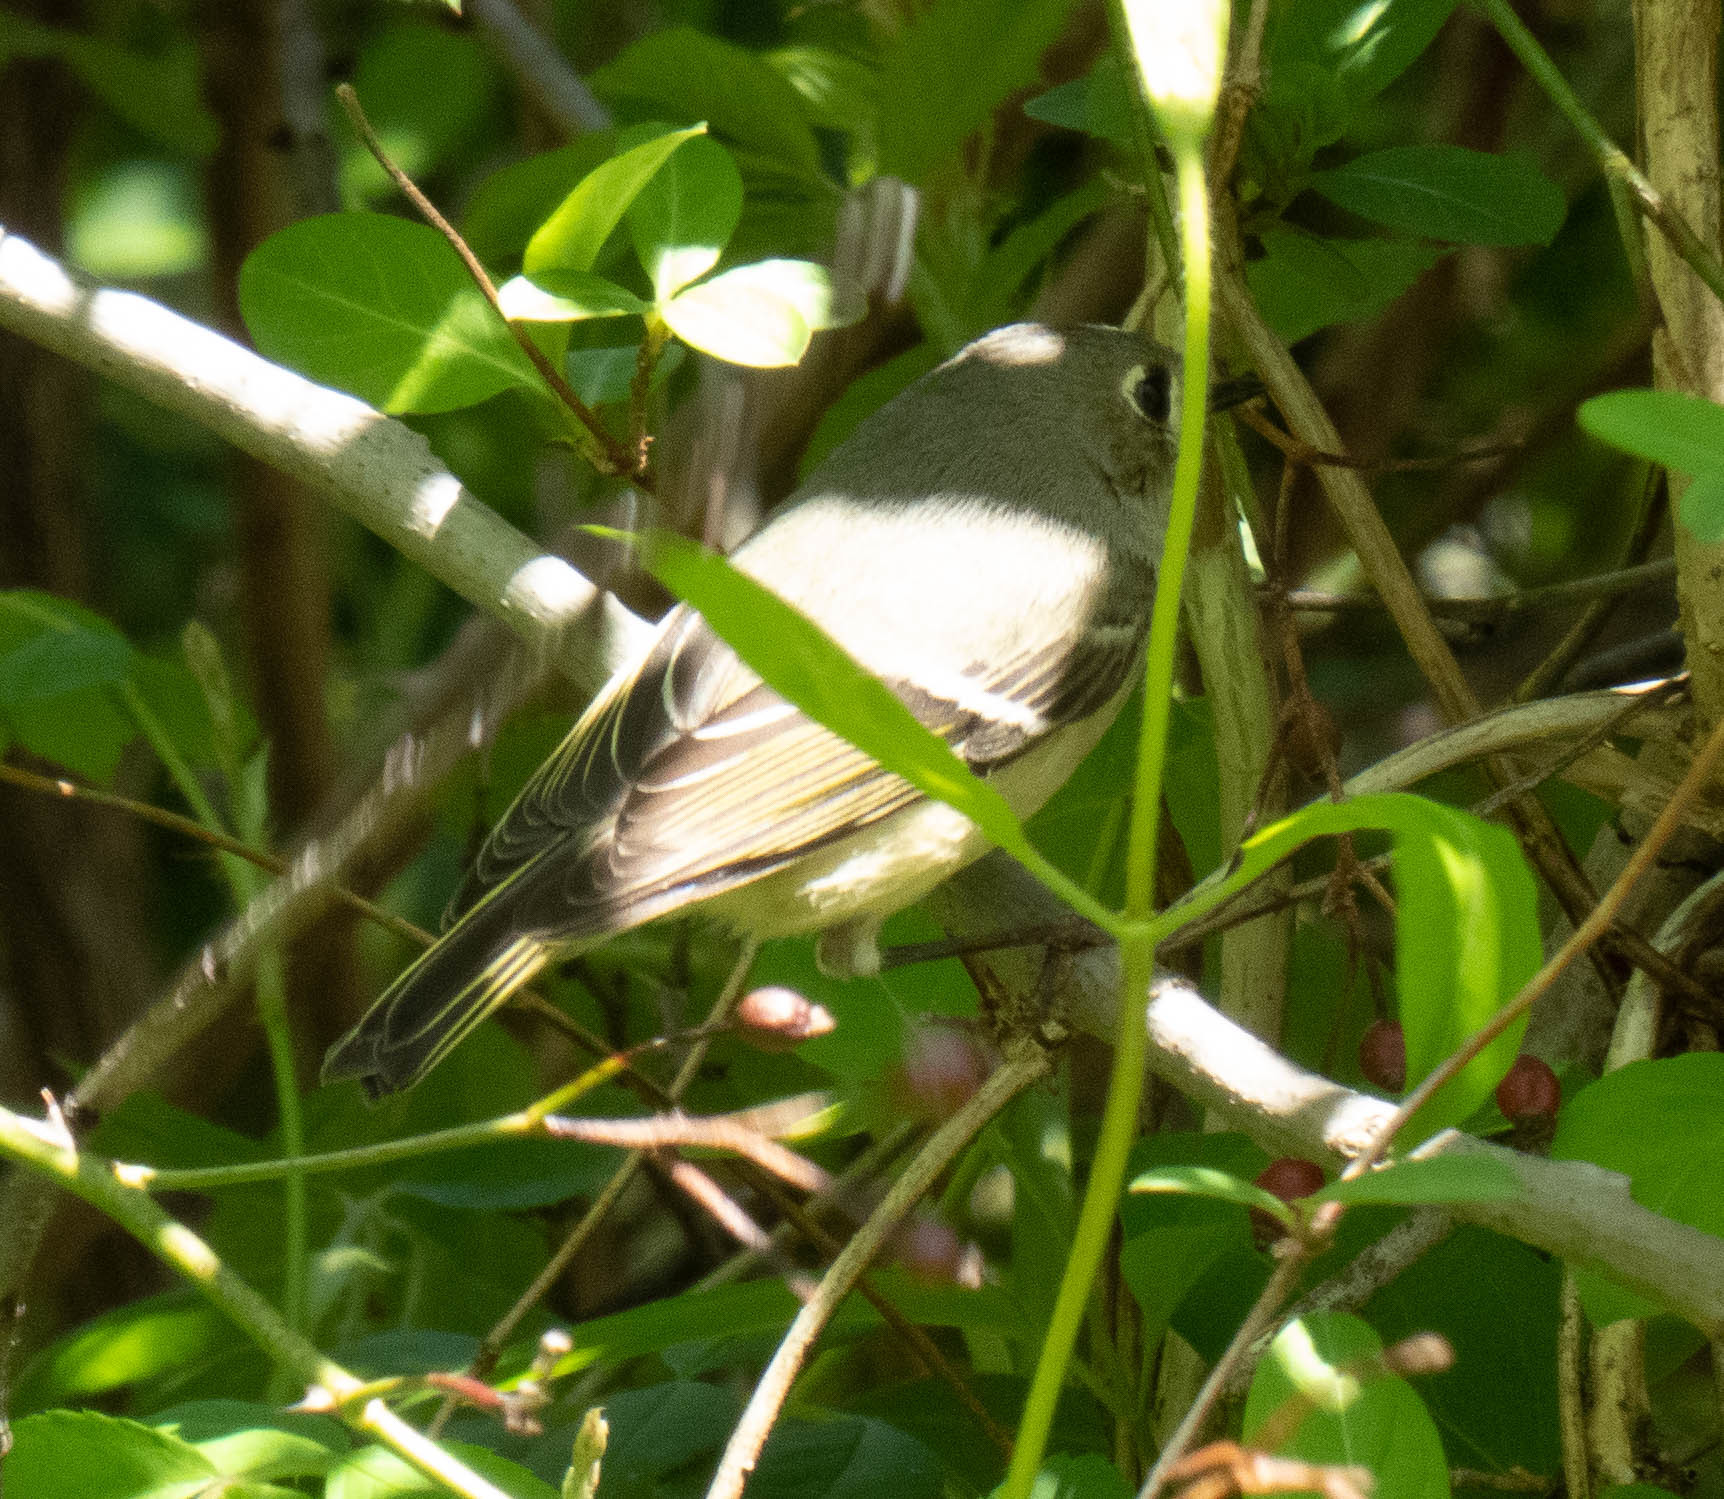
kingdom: Animalia
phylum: Chordata
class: Aves
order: Passeriformes
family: Regulidae
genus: Regulus
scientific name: Regulus calendula
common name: Ruby-crowned kinglet
